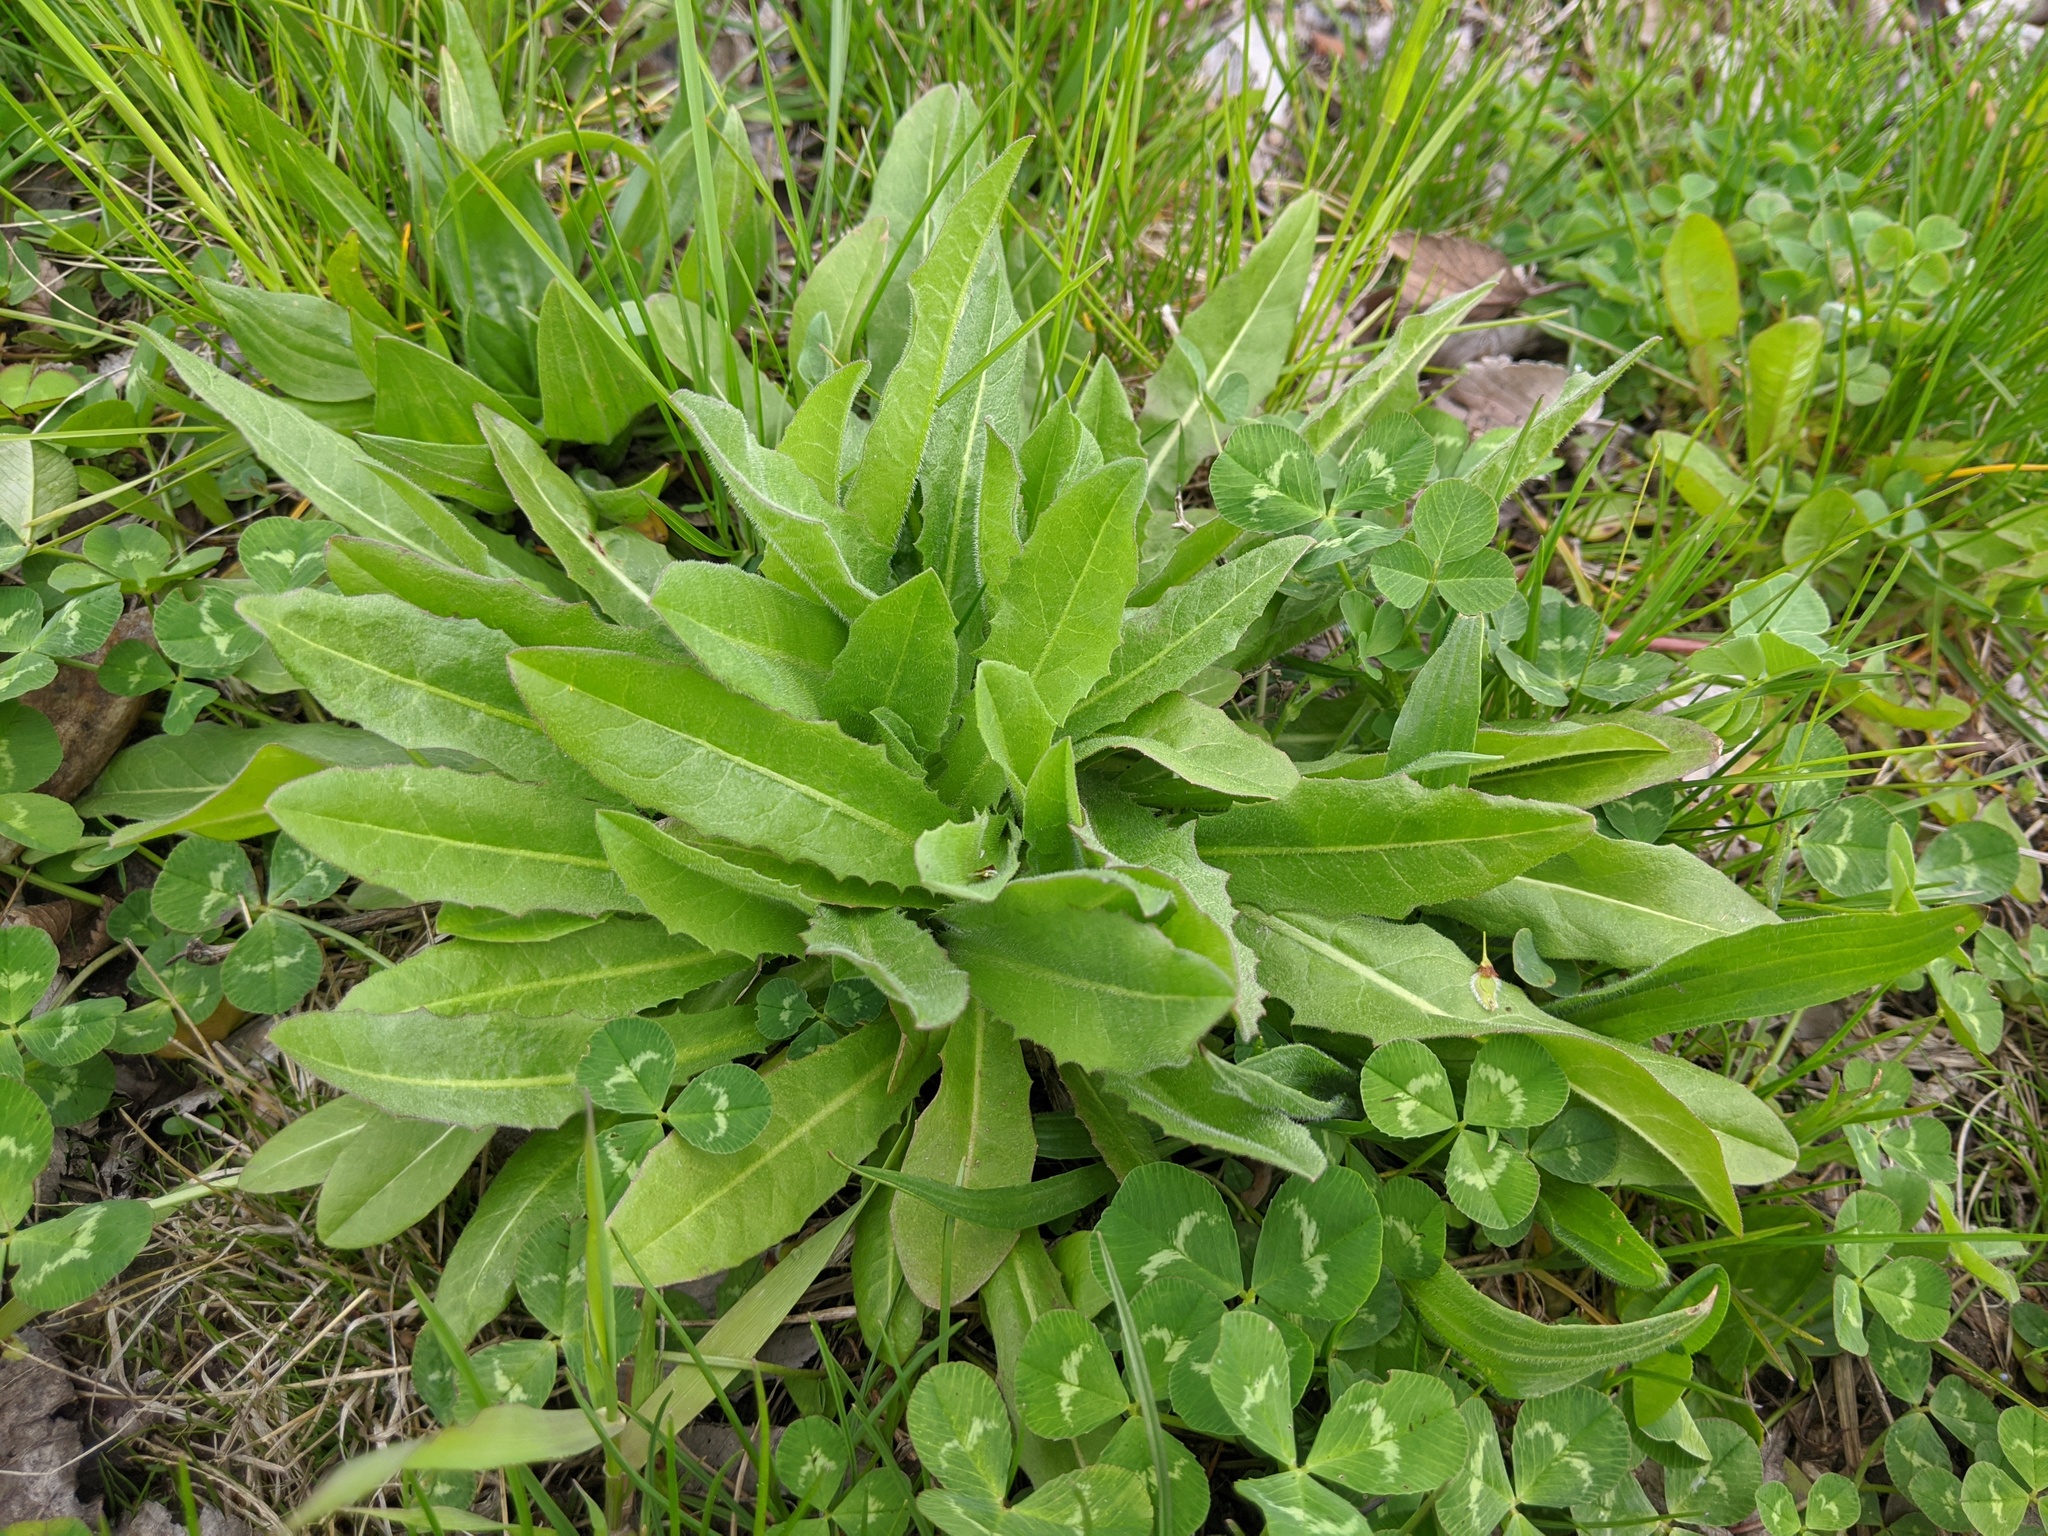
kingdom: Plantae
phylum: Tracheophyta
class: Magnoliopsida
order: Asterales
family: Asteraceae
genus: Cichorium
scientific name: Cichorium intybus
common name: Chicory
